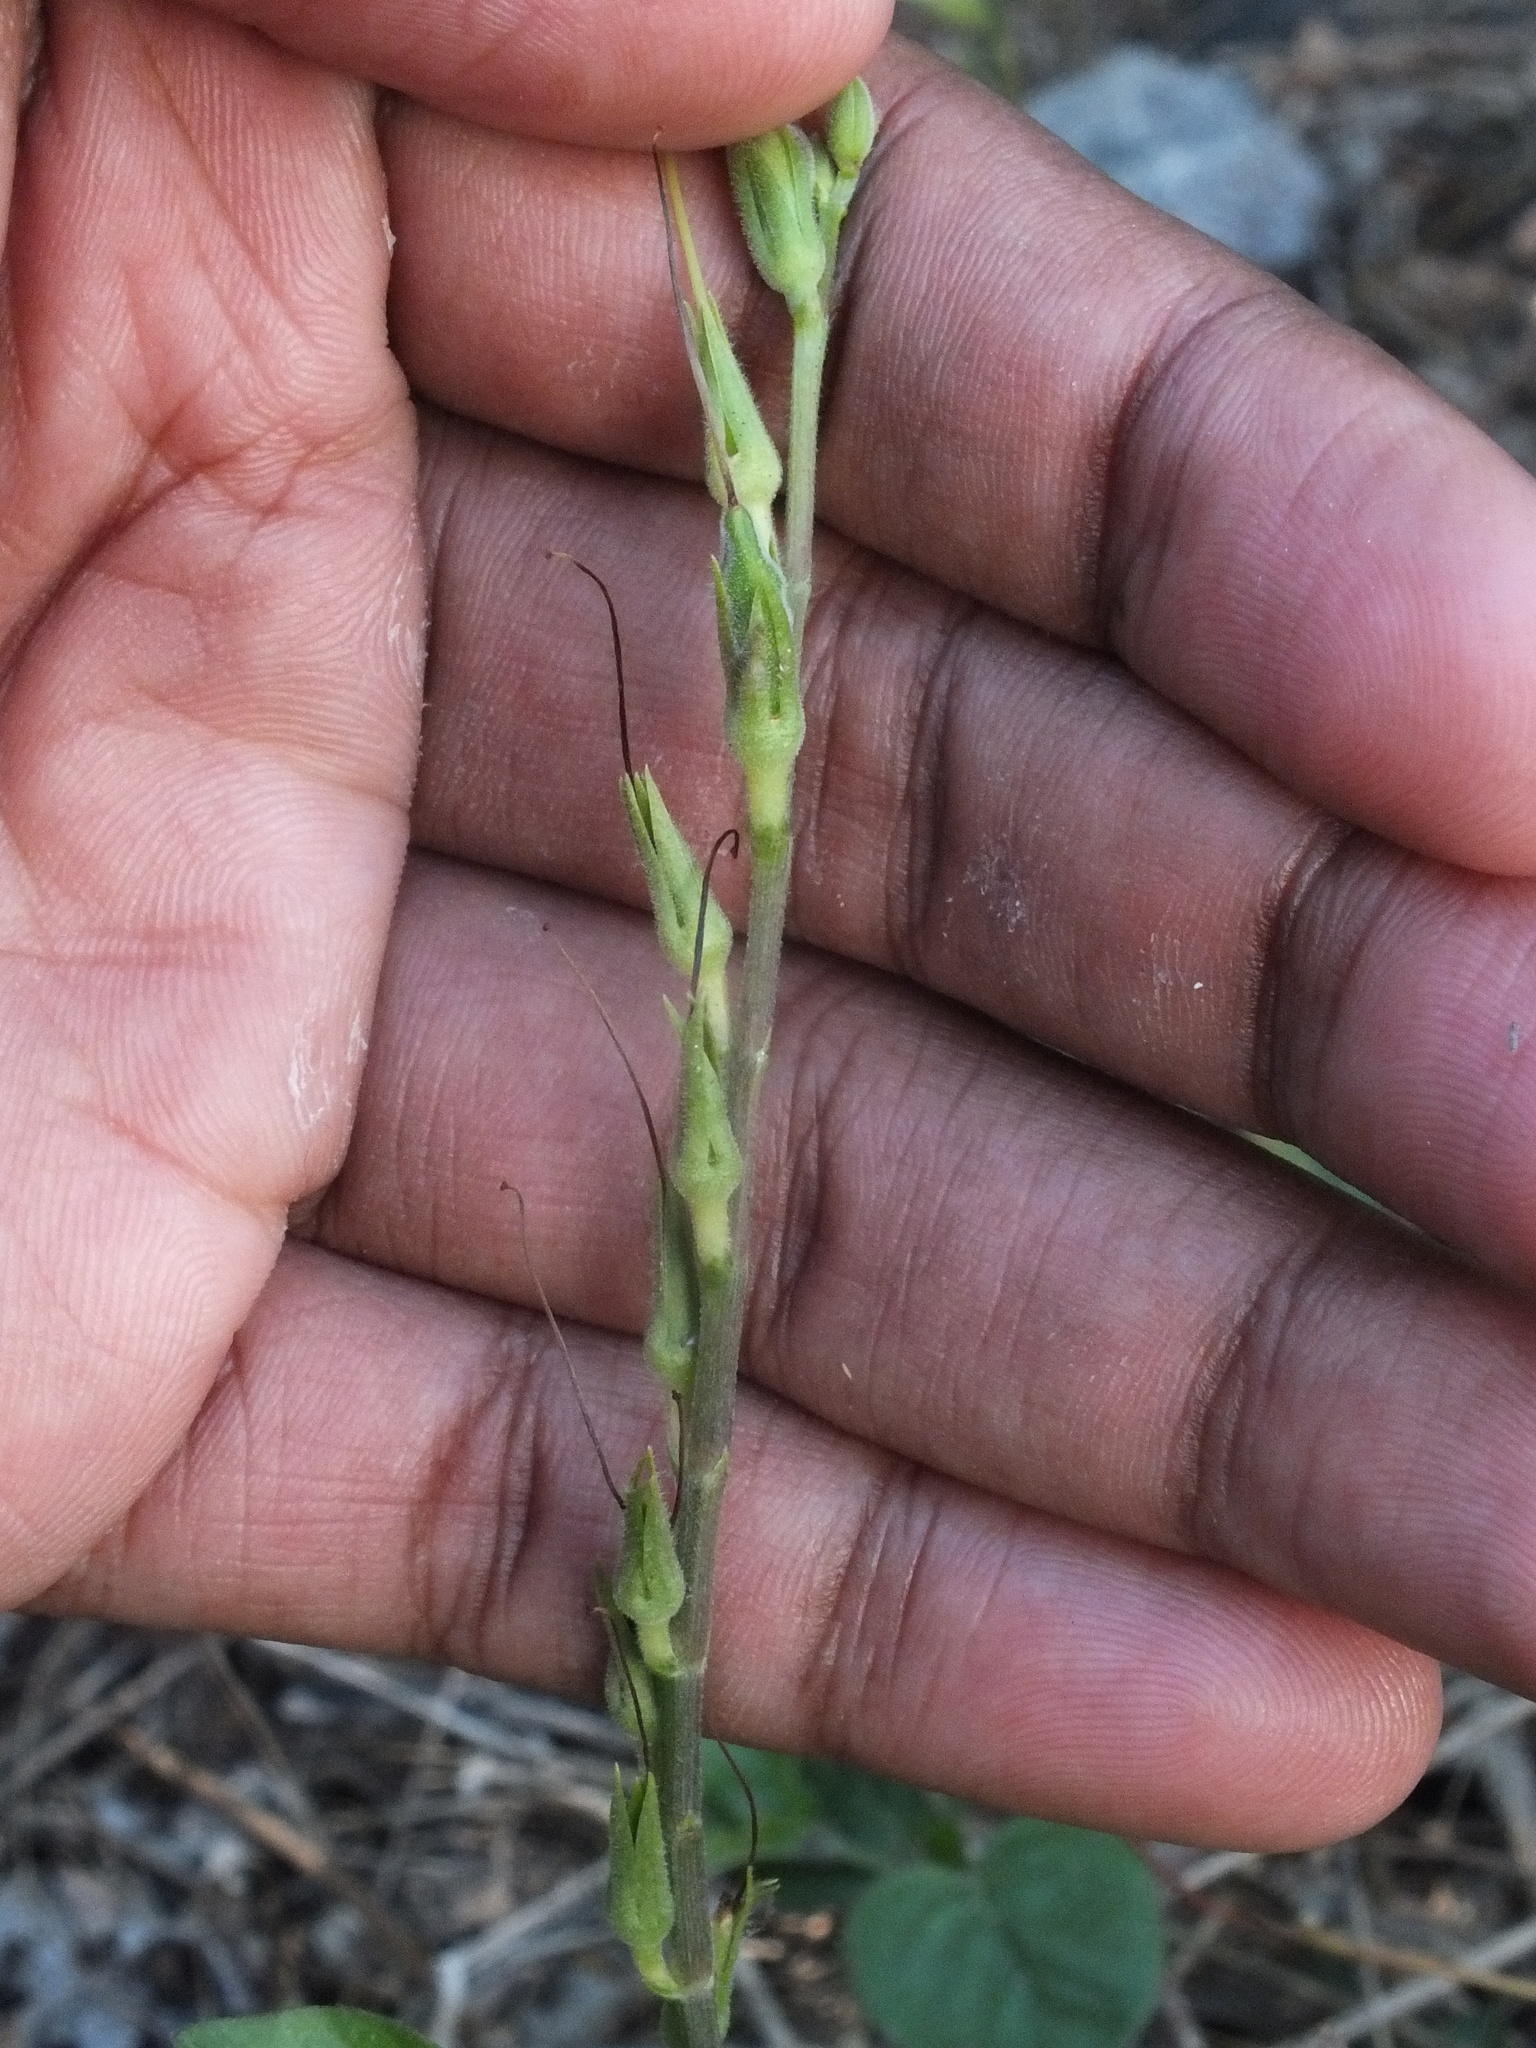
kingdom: Plantae
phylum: Tracheophyta
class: Magnoliopsida
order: Lamiales
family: Acanthaceae
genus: Asystasia
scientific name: Asystasia gangetica
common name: Chinese violet
